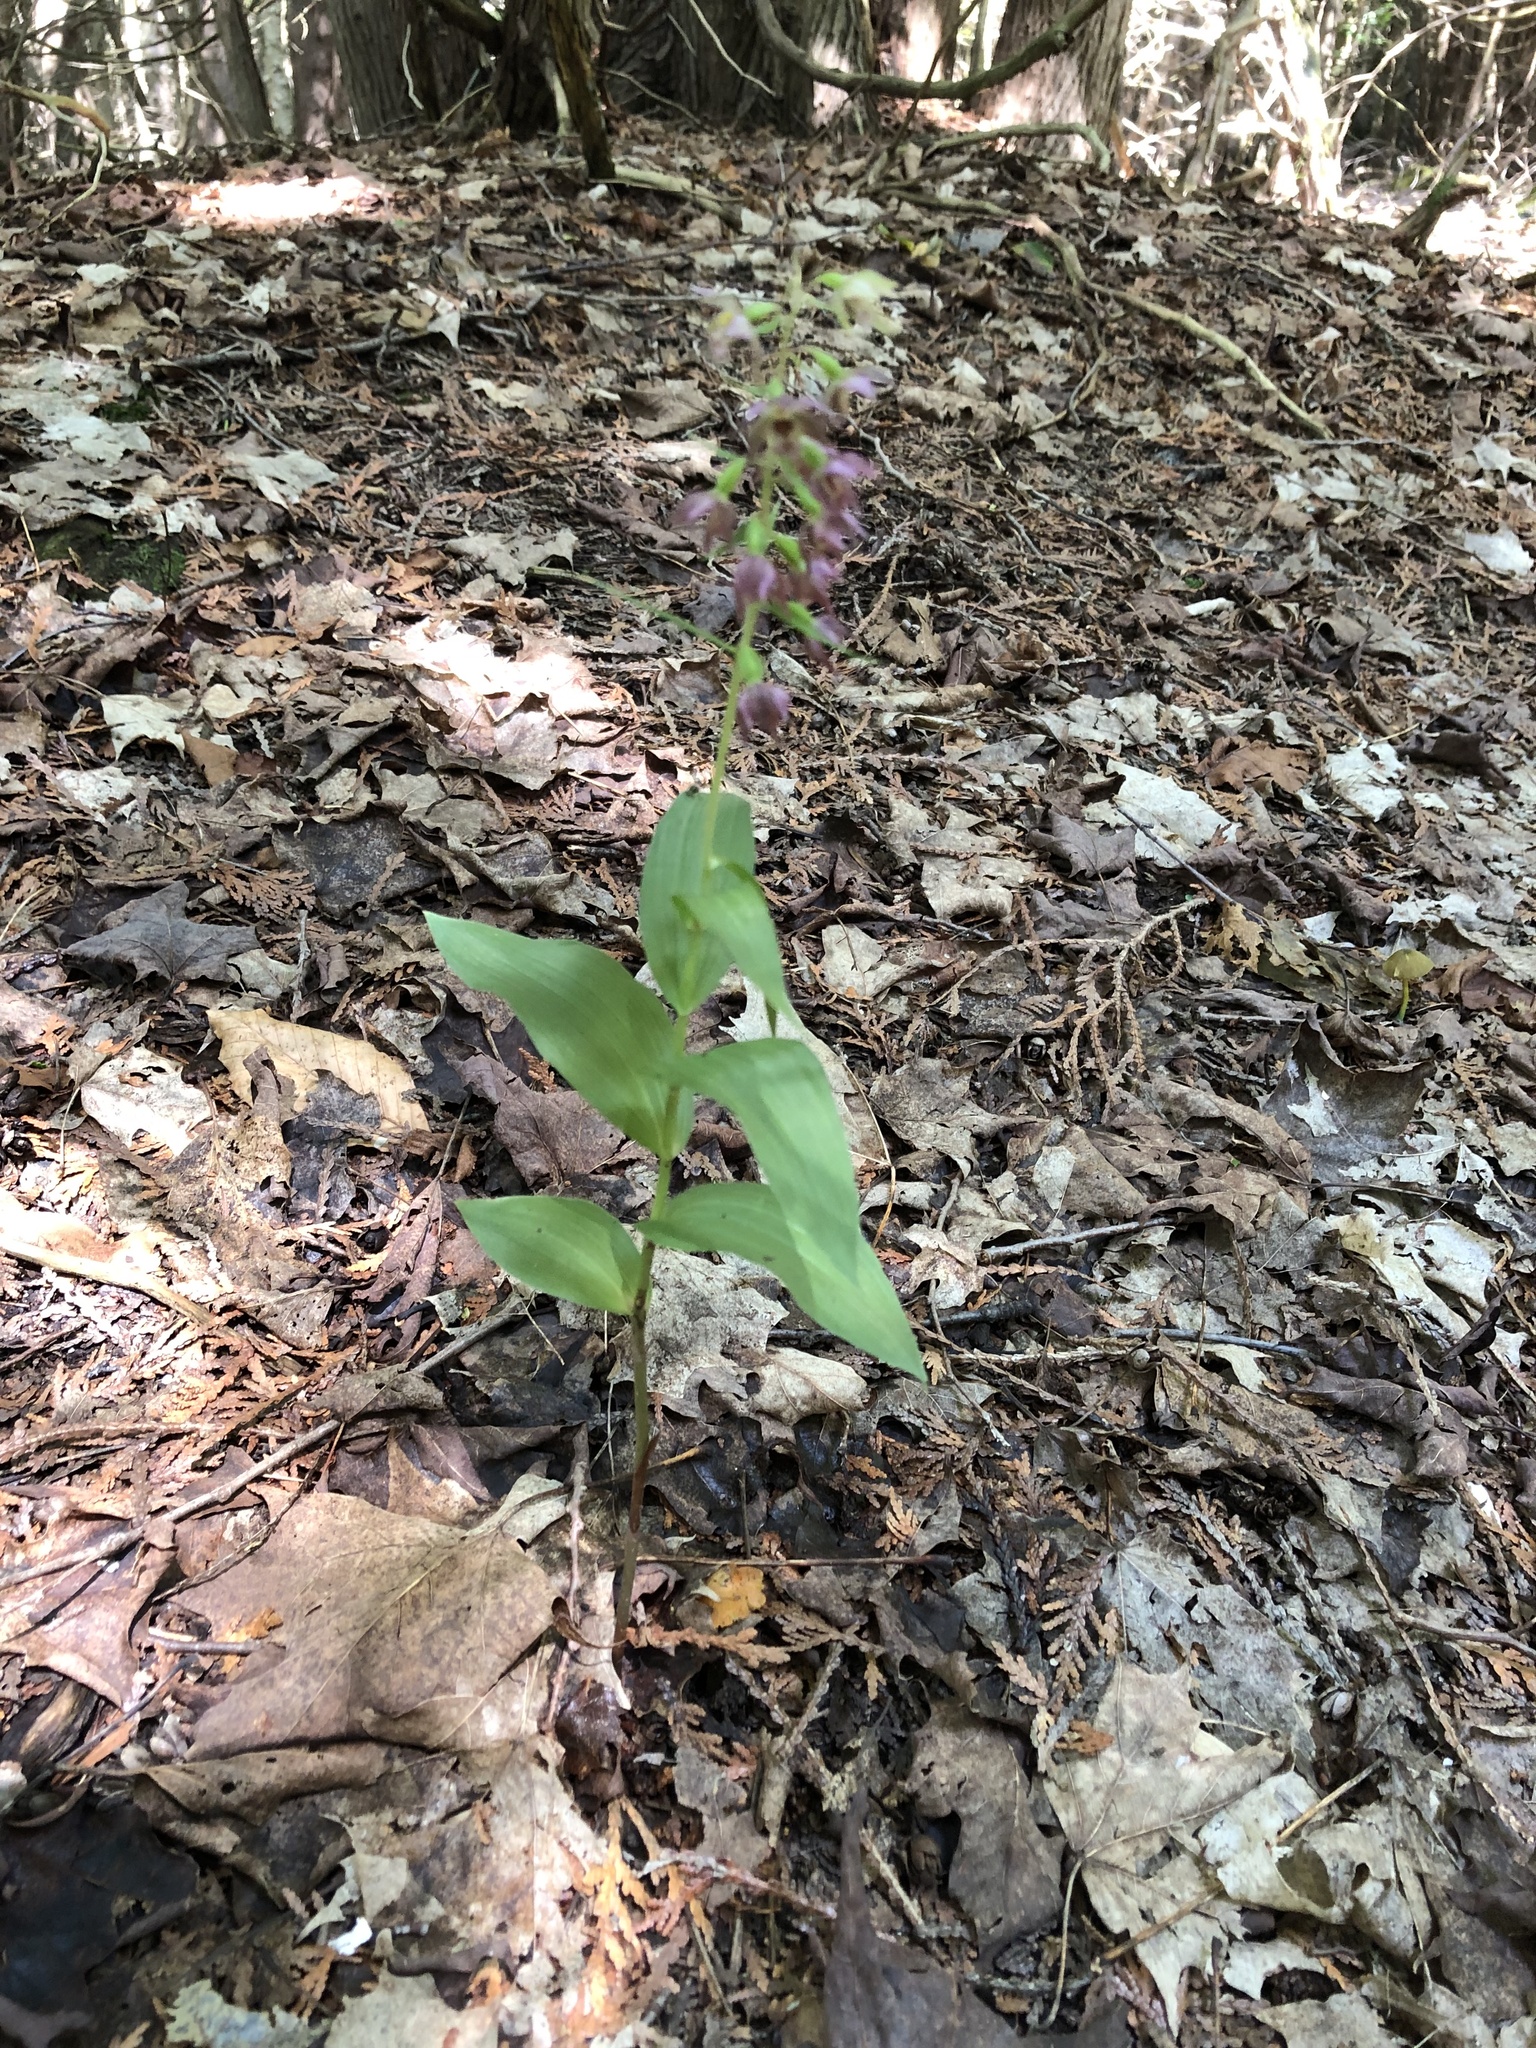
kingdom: Plantae
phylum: Tracheophyta
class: Liliopsida
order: Asparagales
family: Orchidaceae
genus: Epipactis
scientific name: Epipactis helleborine
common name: Broad-leaved helleborine
